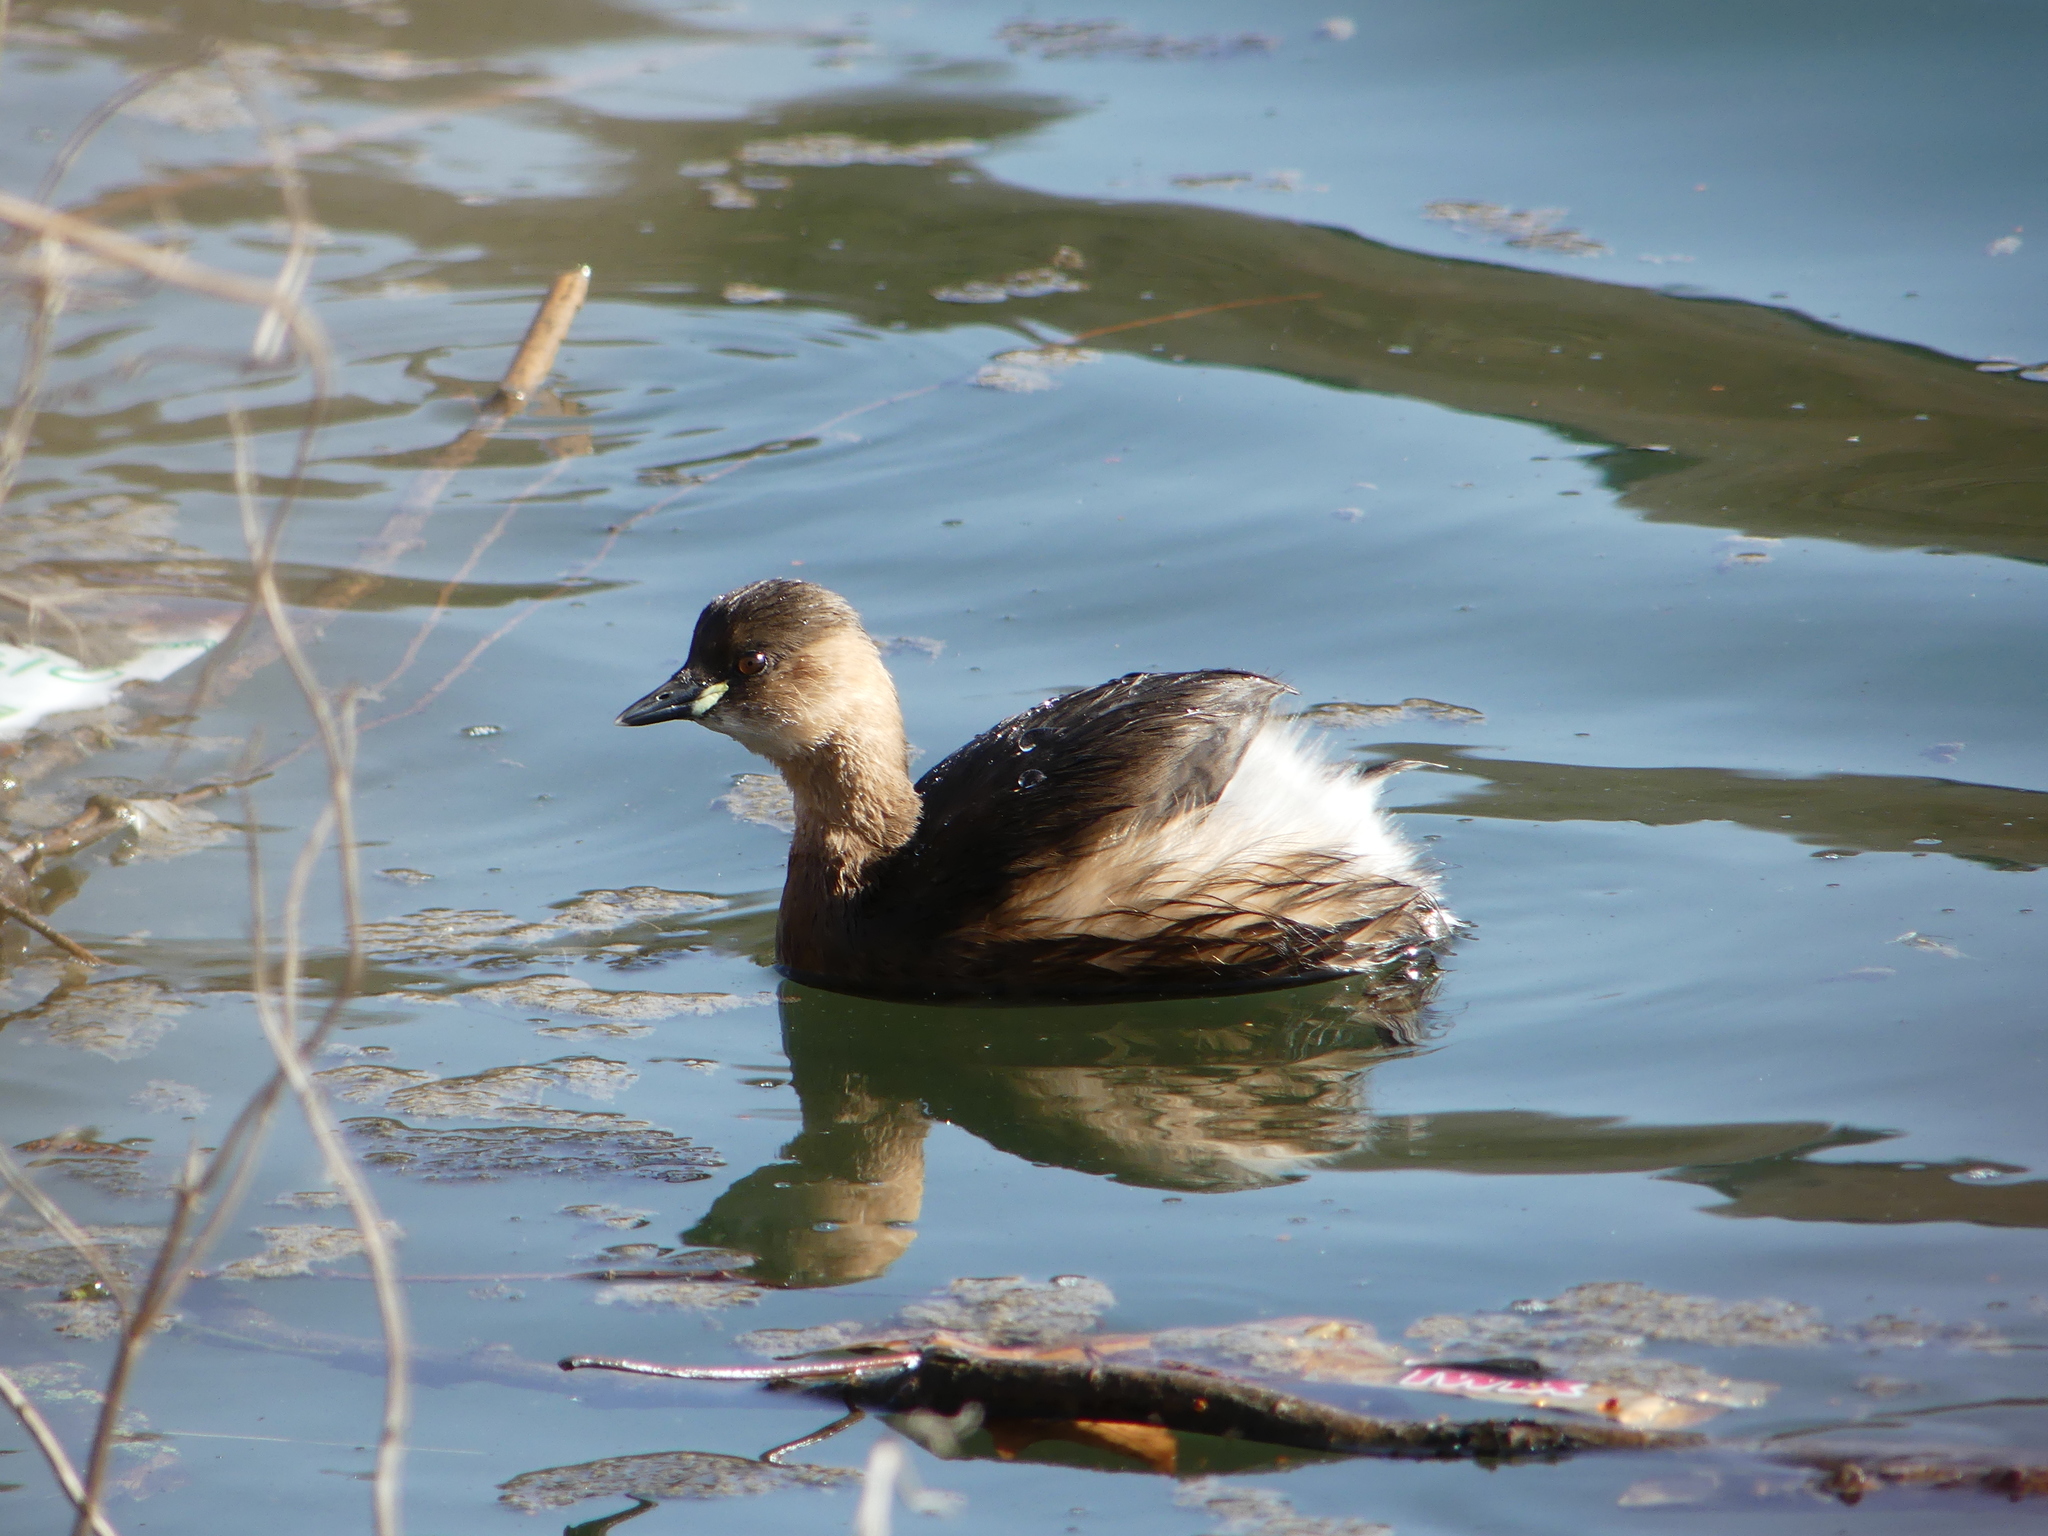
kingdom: Animalia
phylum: Chordata
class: Aves
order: Podicipediformes
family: Podicipedidae
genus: Tachybaptus
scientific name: Tachybaptus ruficollis
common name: Little grebe
